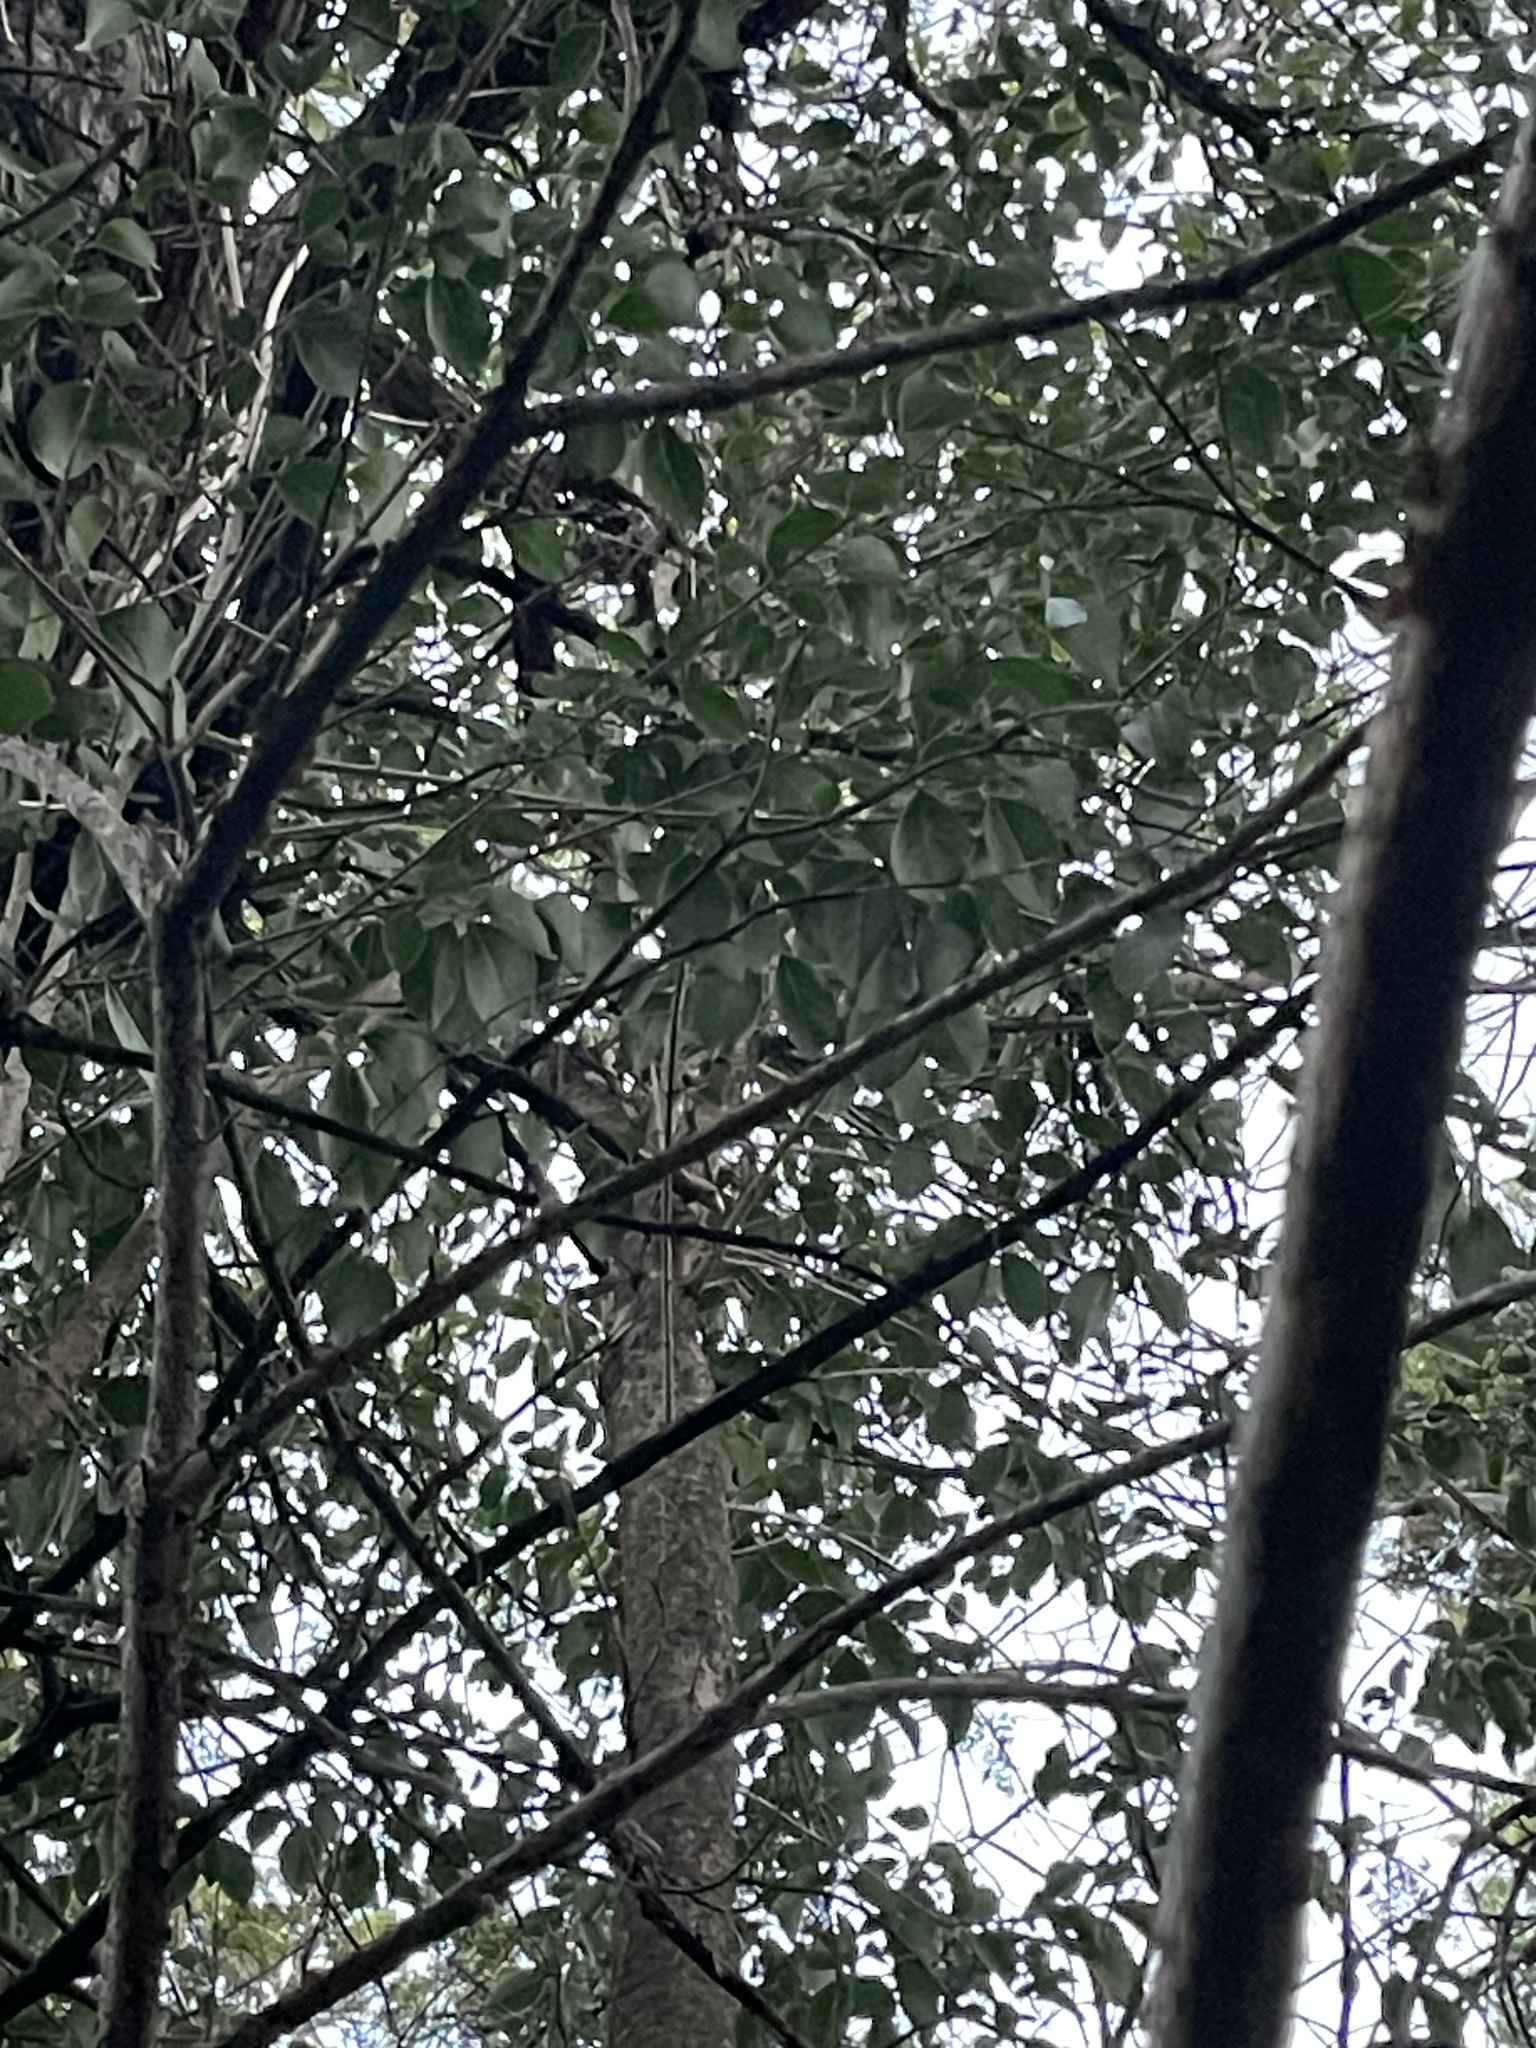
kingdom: Plantae
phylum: Tracheophyta
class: Magnoliopsida
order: Lamiales
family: Oleaceae
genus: Ligustrum
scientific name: Ligustrum lucidum
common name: Glossy privet
